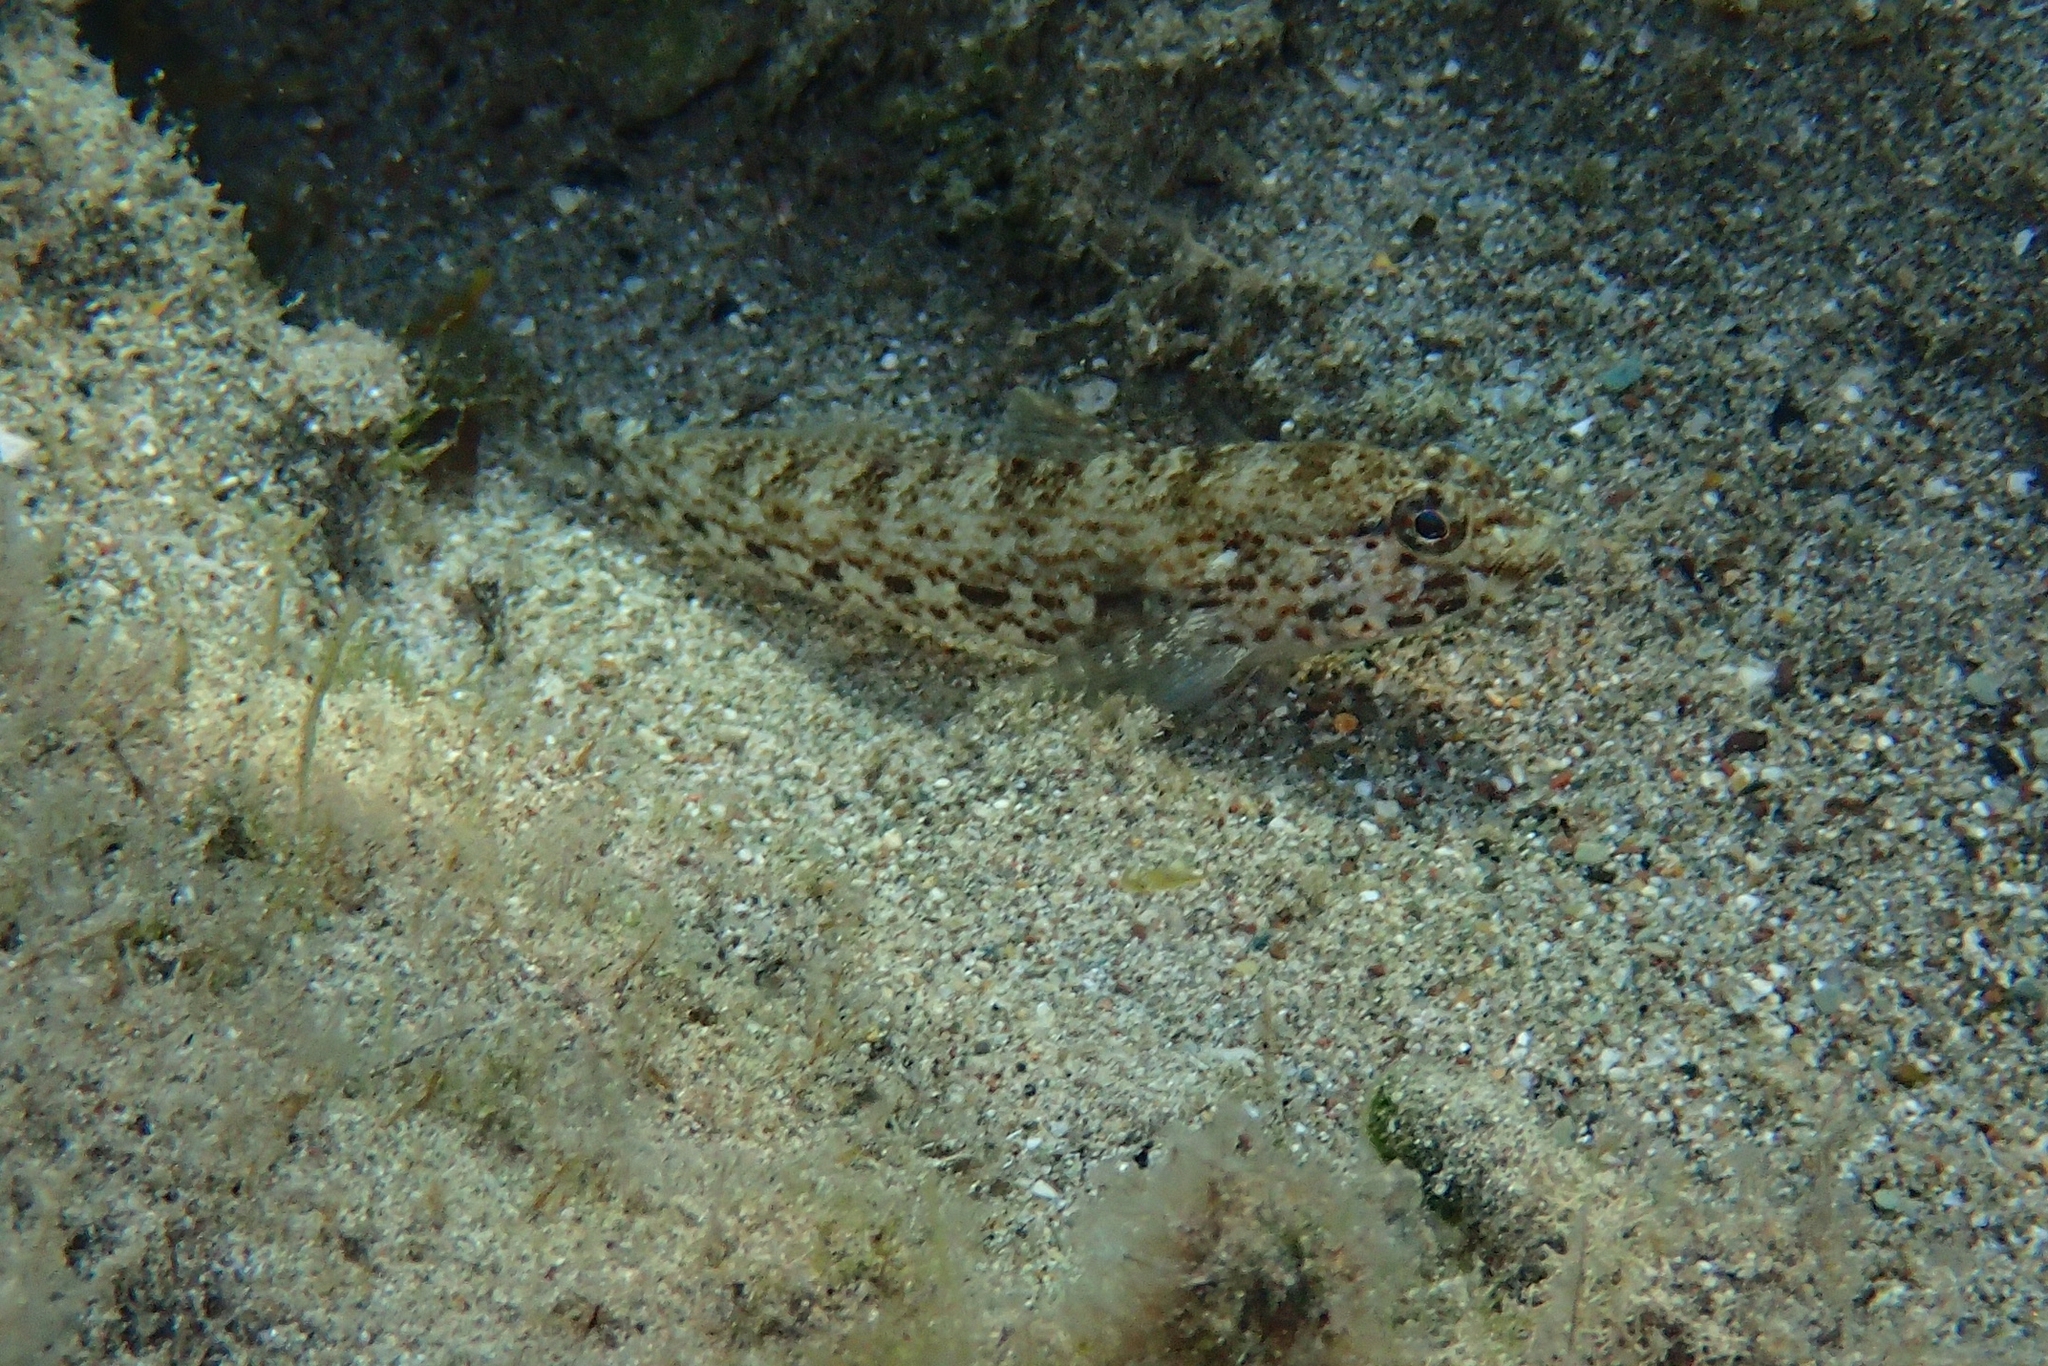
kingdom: Animalia
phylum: Chordata
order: Perciformes
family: Gobiidae
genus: Gobius
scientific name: Gobius incognitus
